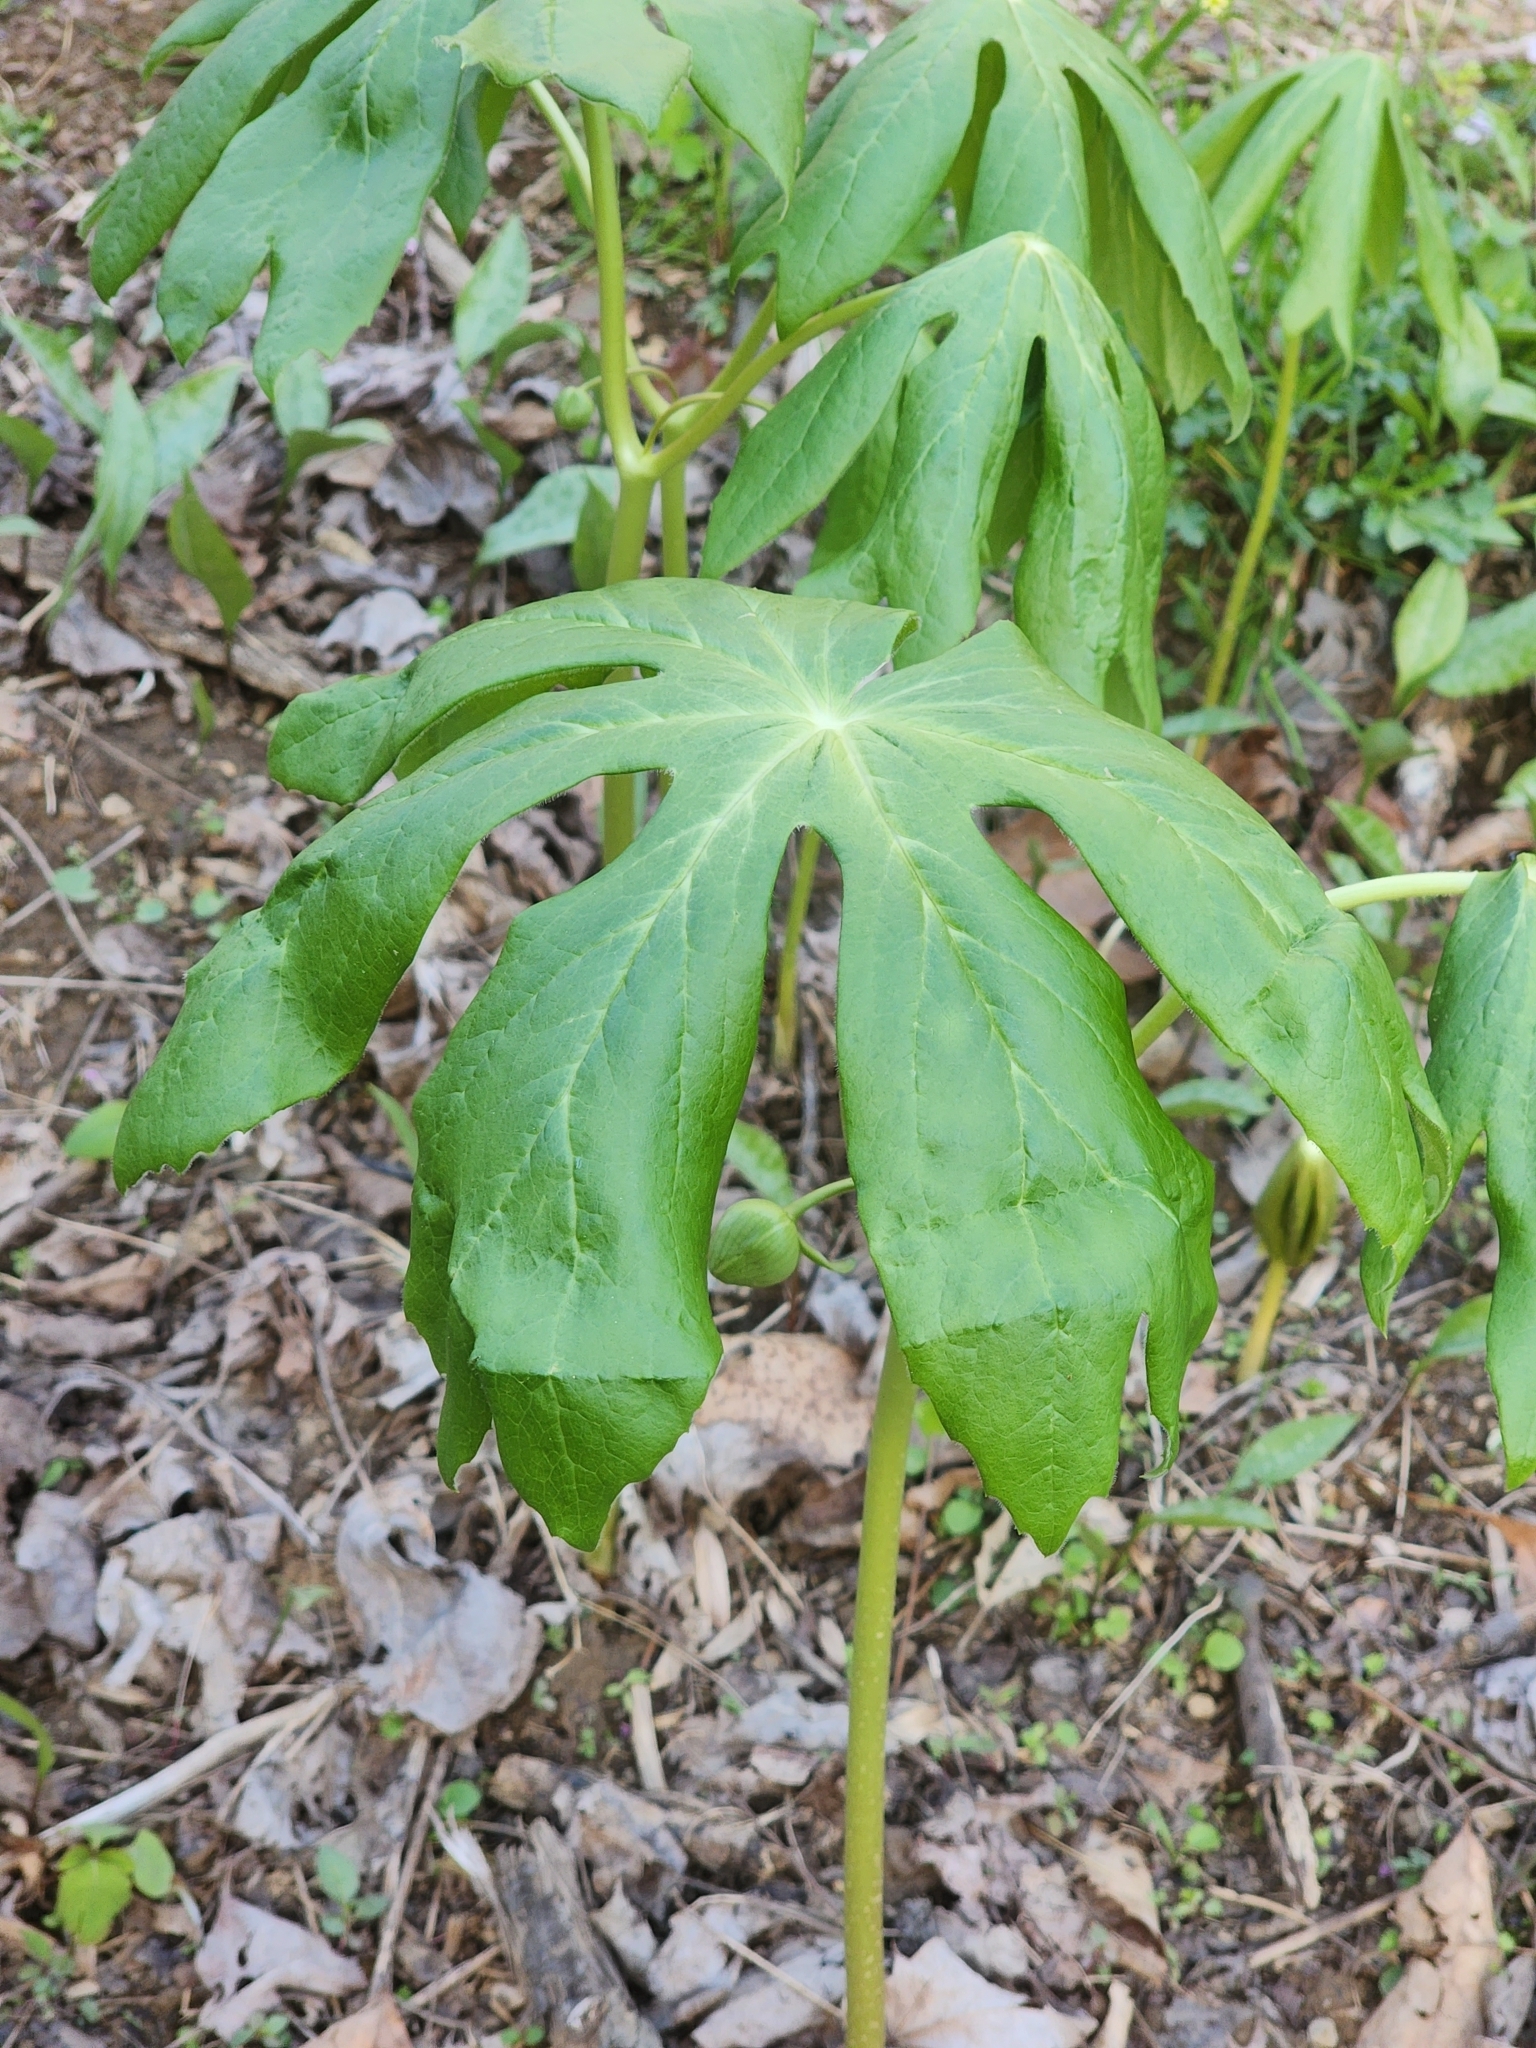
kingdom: Plantae
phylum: Tracheophyta
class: Magnoliopsida
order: Ranunculales
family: Berberidaceae
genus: Podophyllum
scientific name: Podophyllum peltatum
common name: Wild mandrake
